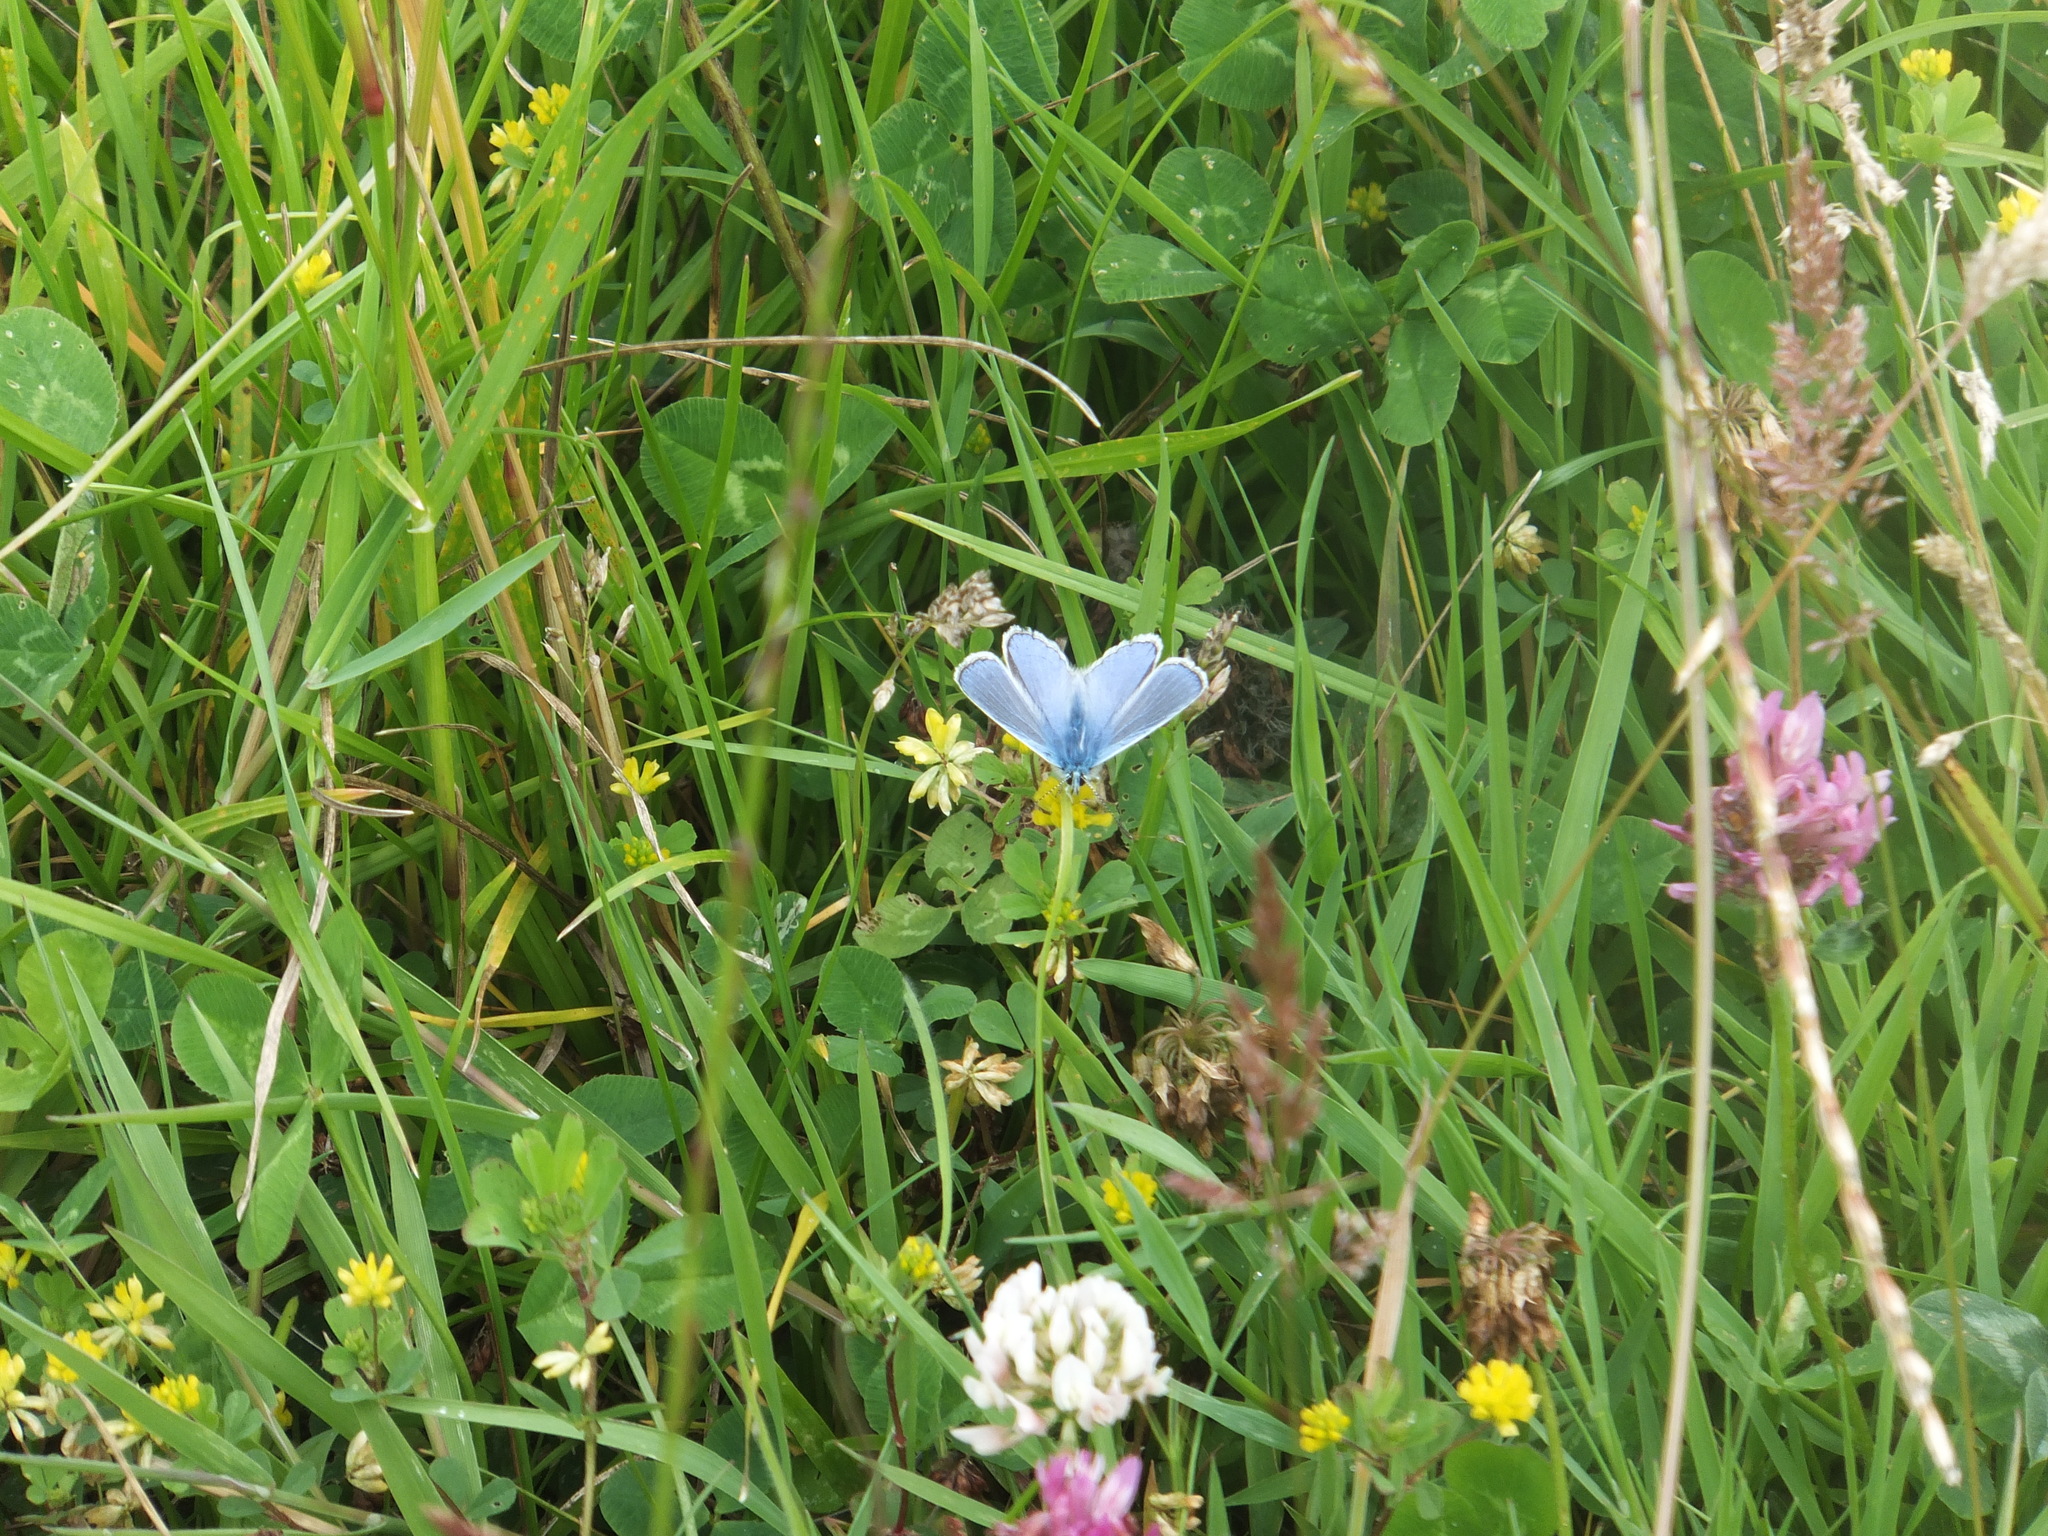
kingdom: Animalia
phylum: Arthropoda
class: Insecta
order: Lepidoptera
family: Lycaenidae
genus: Polyommatus
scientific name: Polyommatus icarus
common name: Common blue
